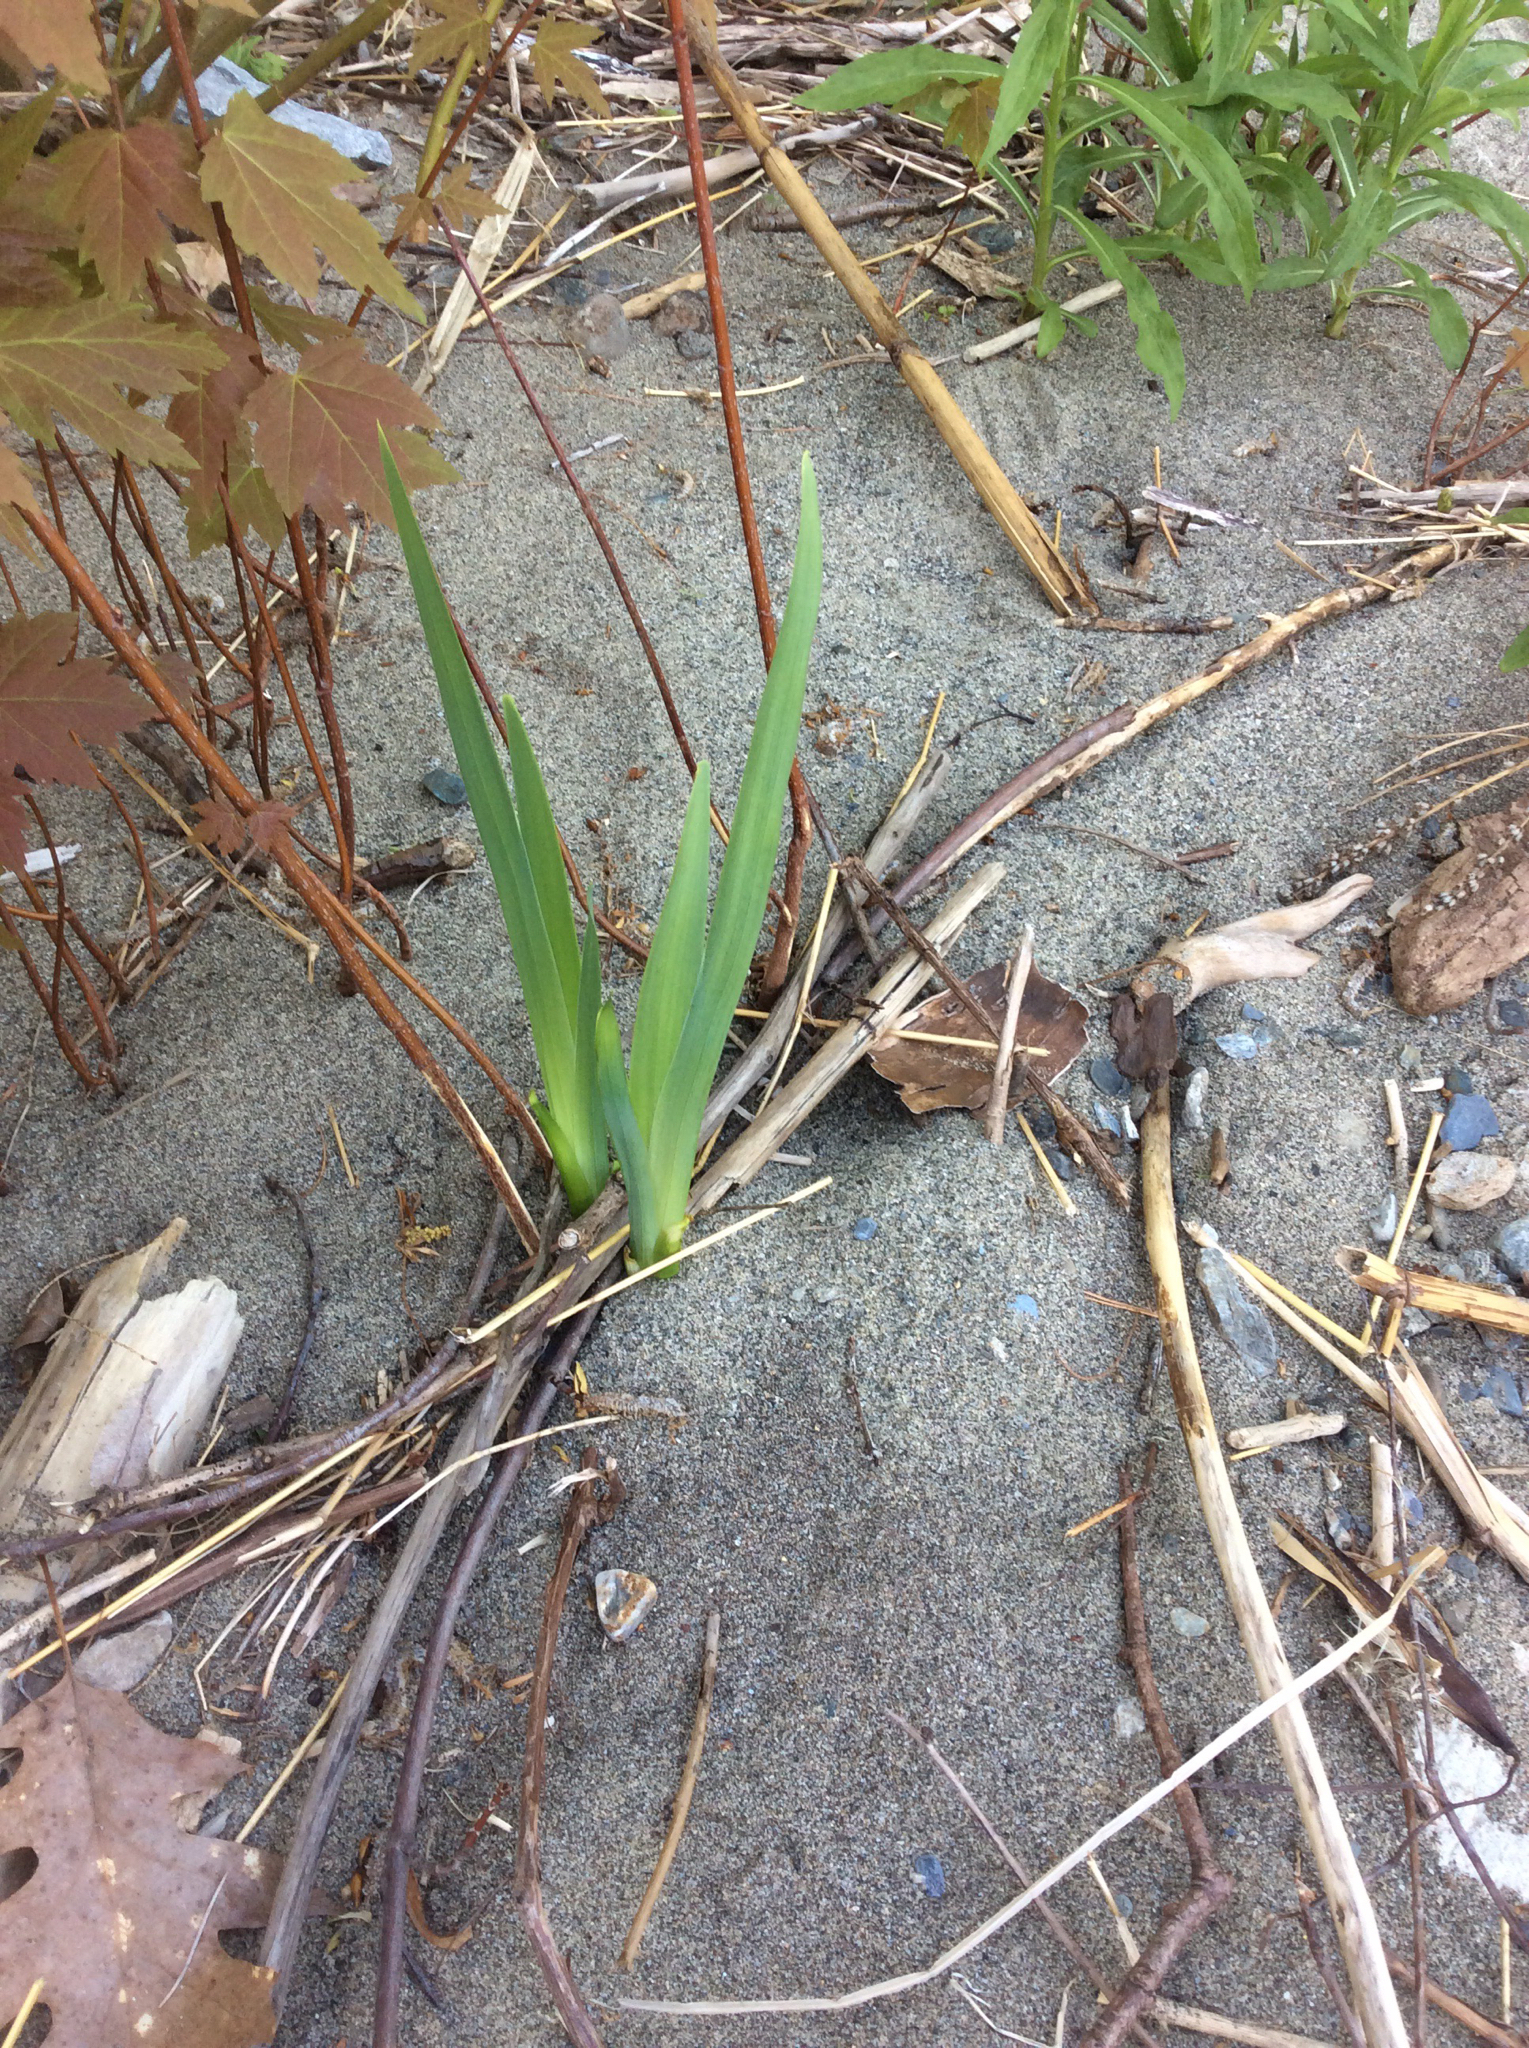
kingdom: Plantae
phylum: Tracheophyta
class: Liliopsida
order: Asparagales
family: Iridaceae
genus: Iris
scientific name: Iris
